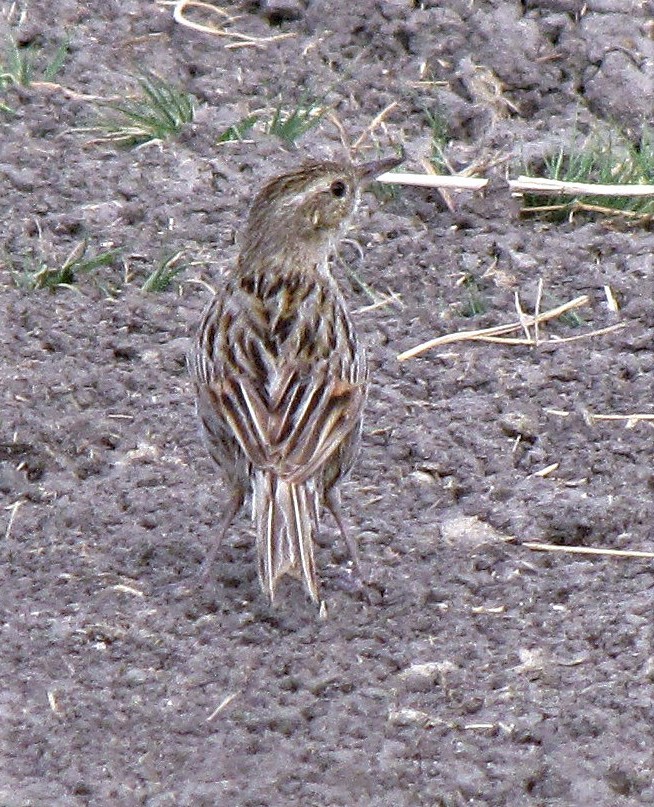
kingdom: Animalia
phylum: Chordata
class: Aves
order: Passeriformes
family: Furnariidae
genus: Asthenes
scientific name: Asthenes hudsoni
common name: Hudson's canastero
